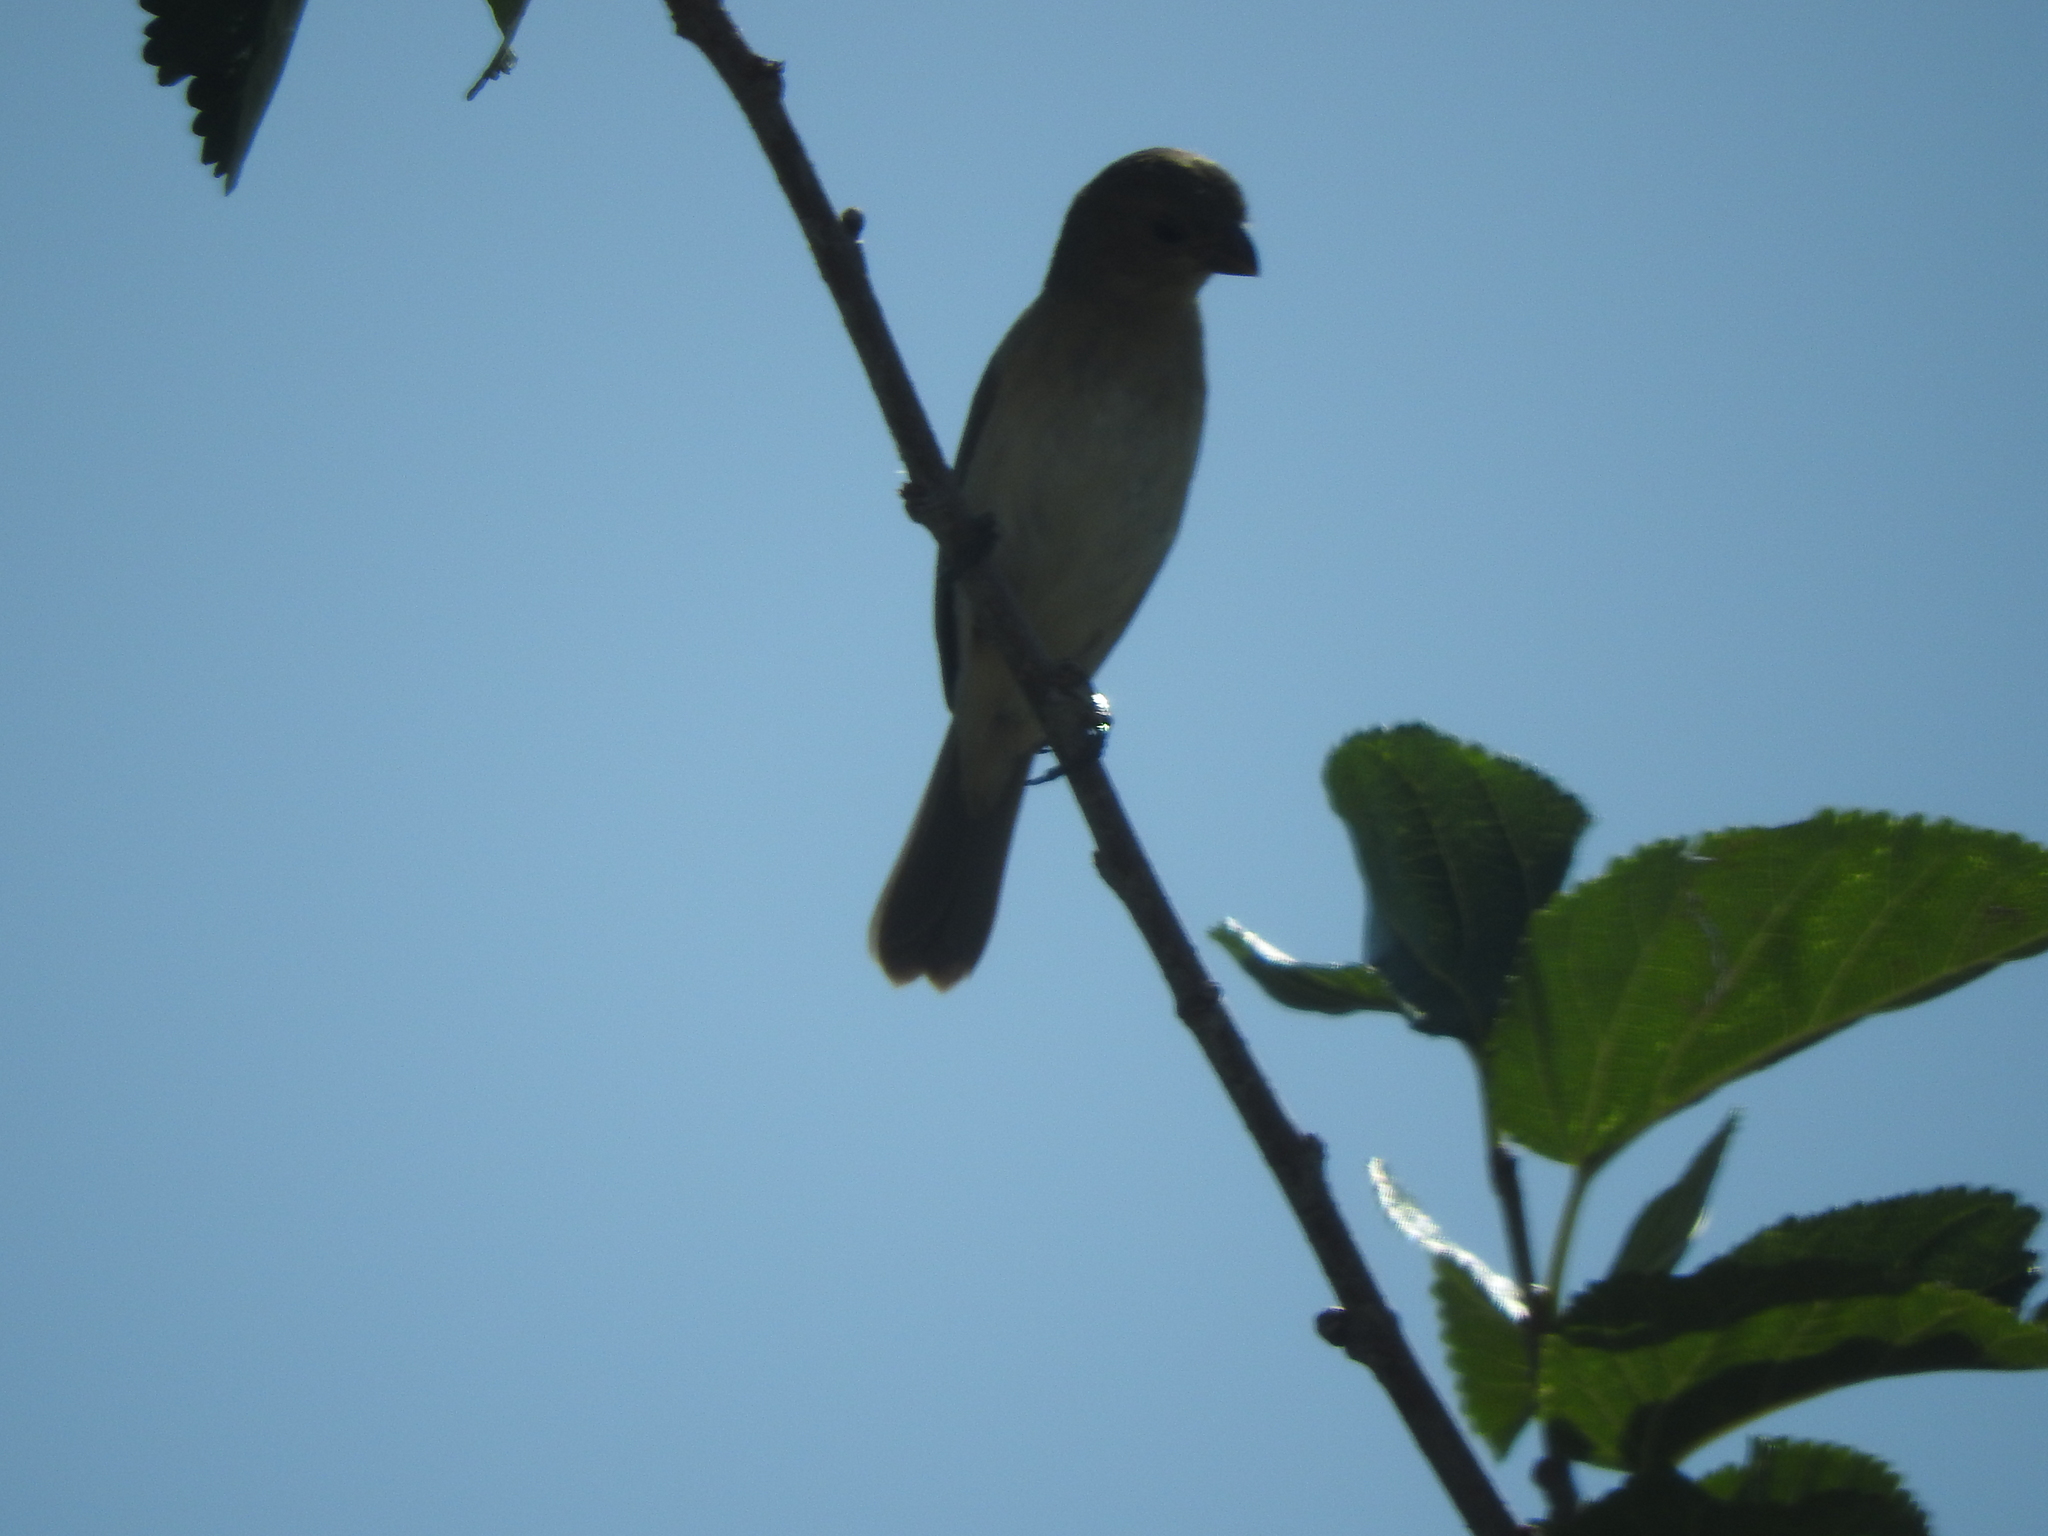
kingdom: Animalia
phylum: Chordata
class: Aves
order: Passeriformes
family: Thraupidae
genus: Sporophila
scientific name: Sporophila torqueola
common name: White-collared seedeater
